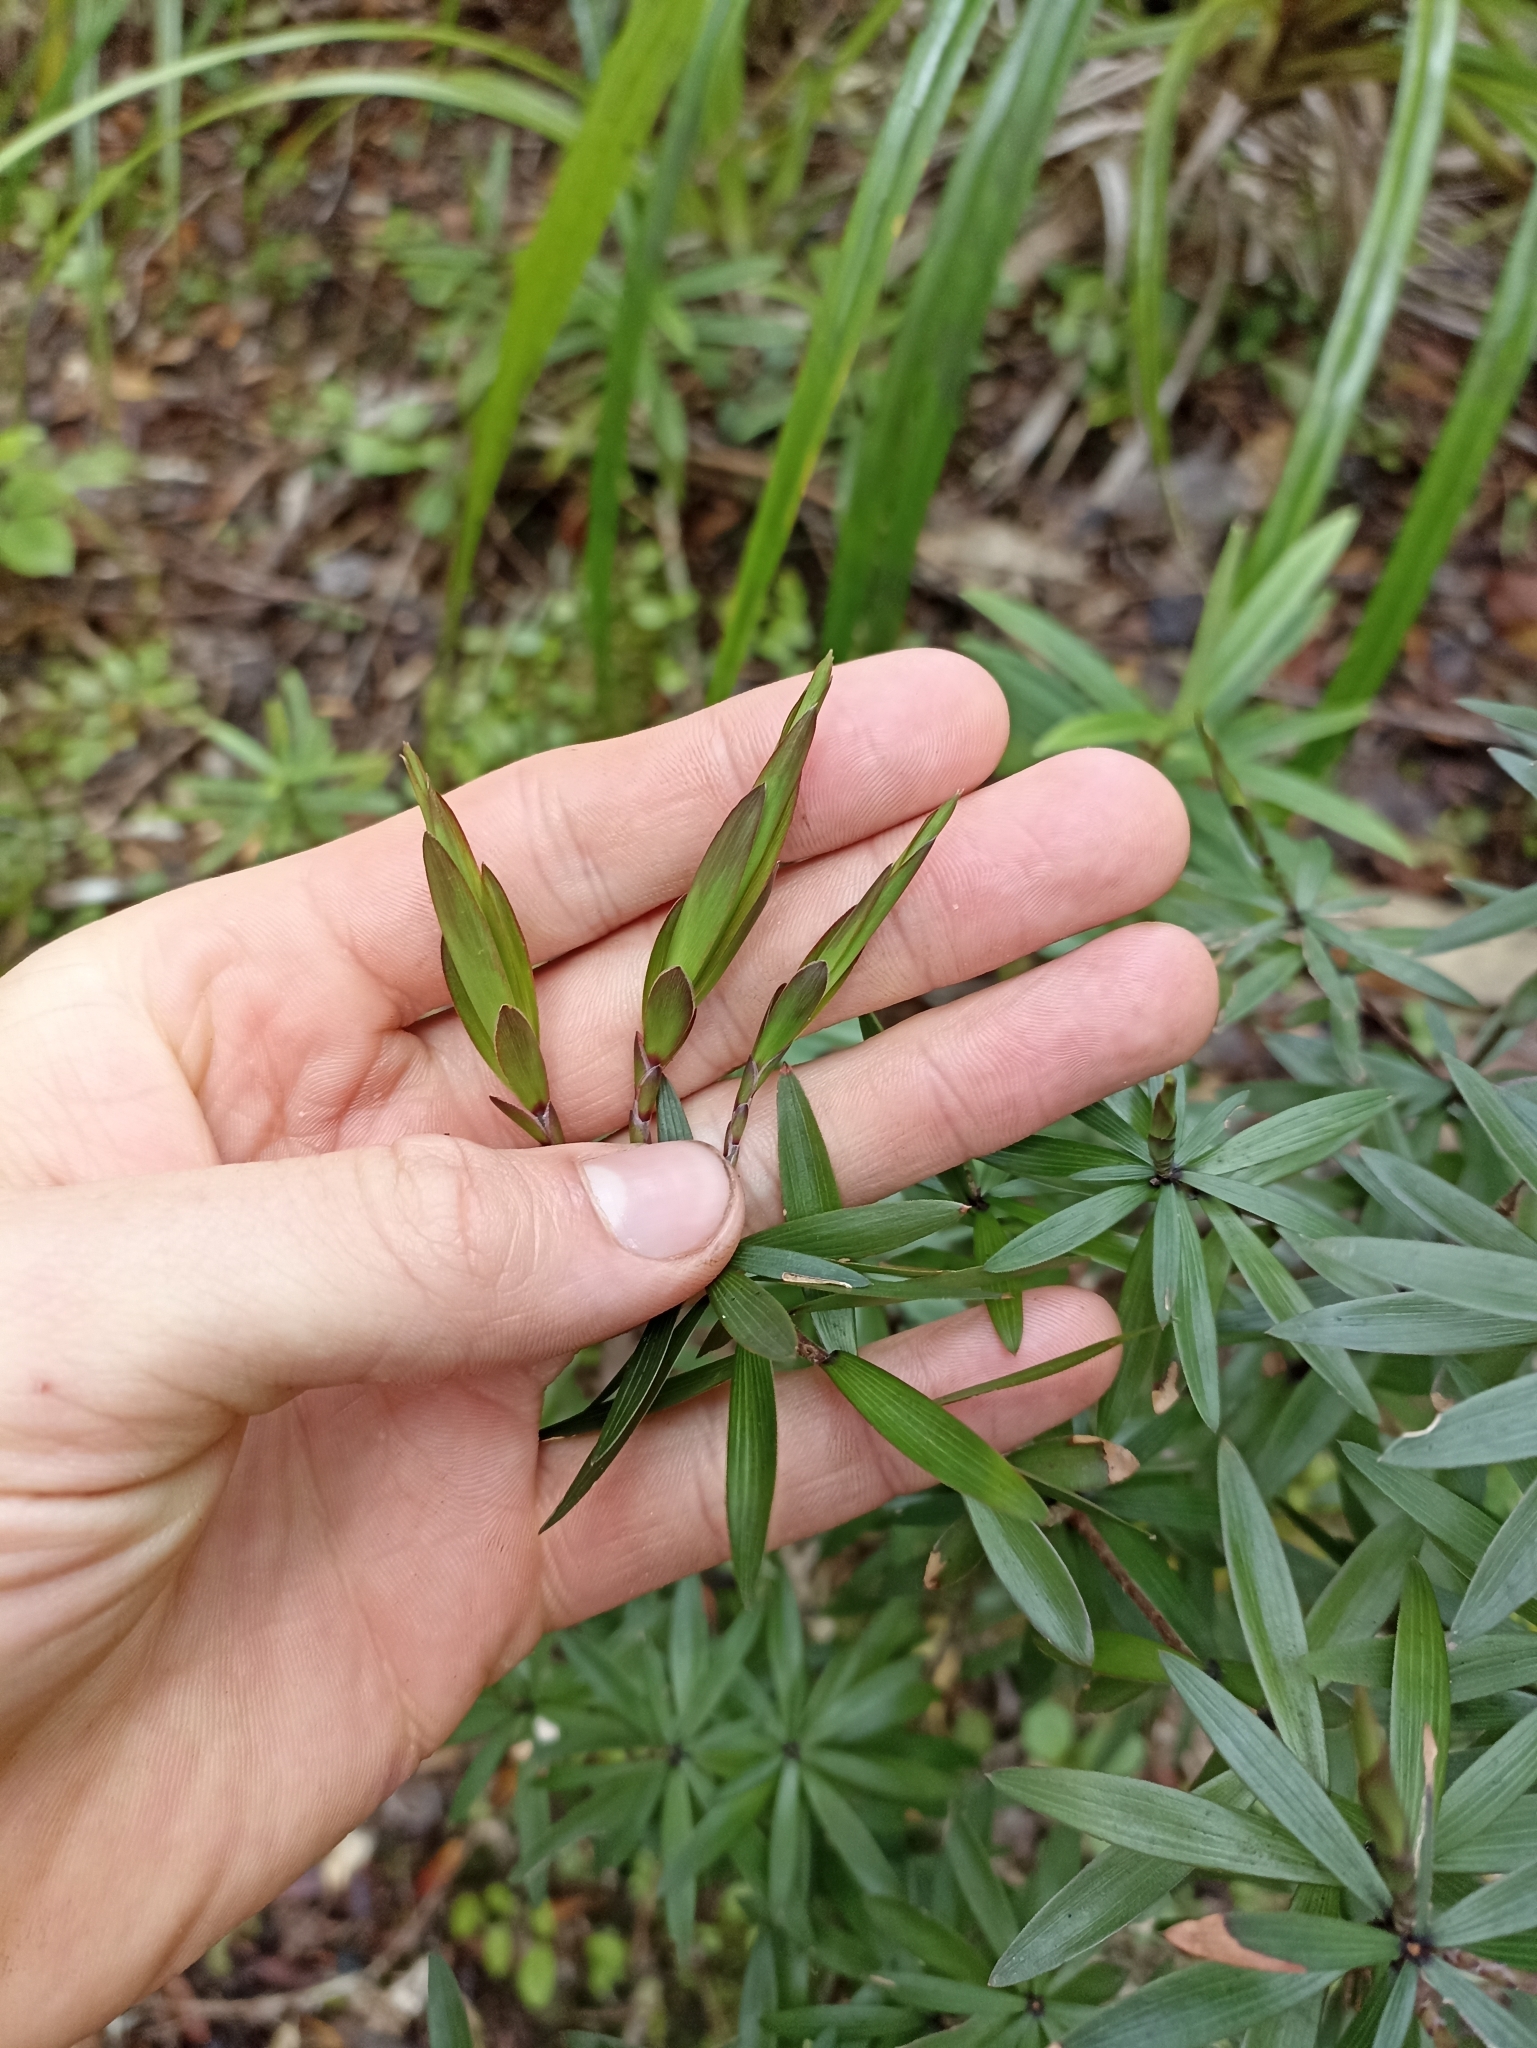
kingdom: Plantae
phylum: Tracheophyta
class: Magnoliopsida
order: Ericales
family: Ericaceae
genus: Leucopogon
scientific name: Leucopogon fasciculatus
